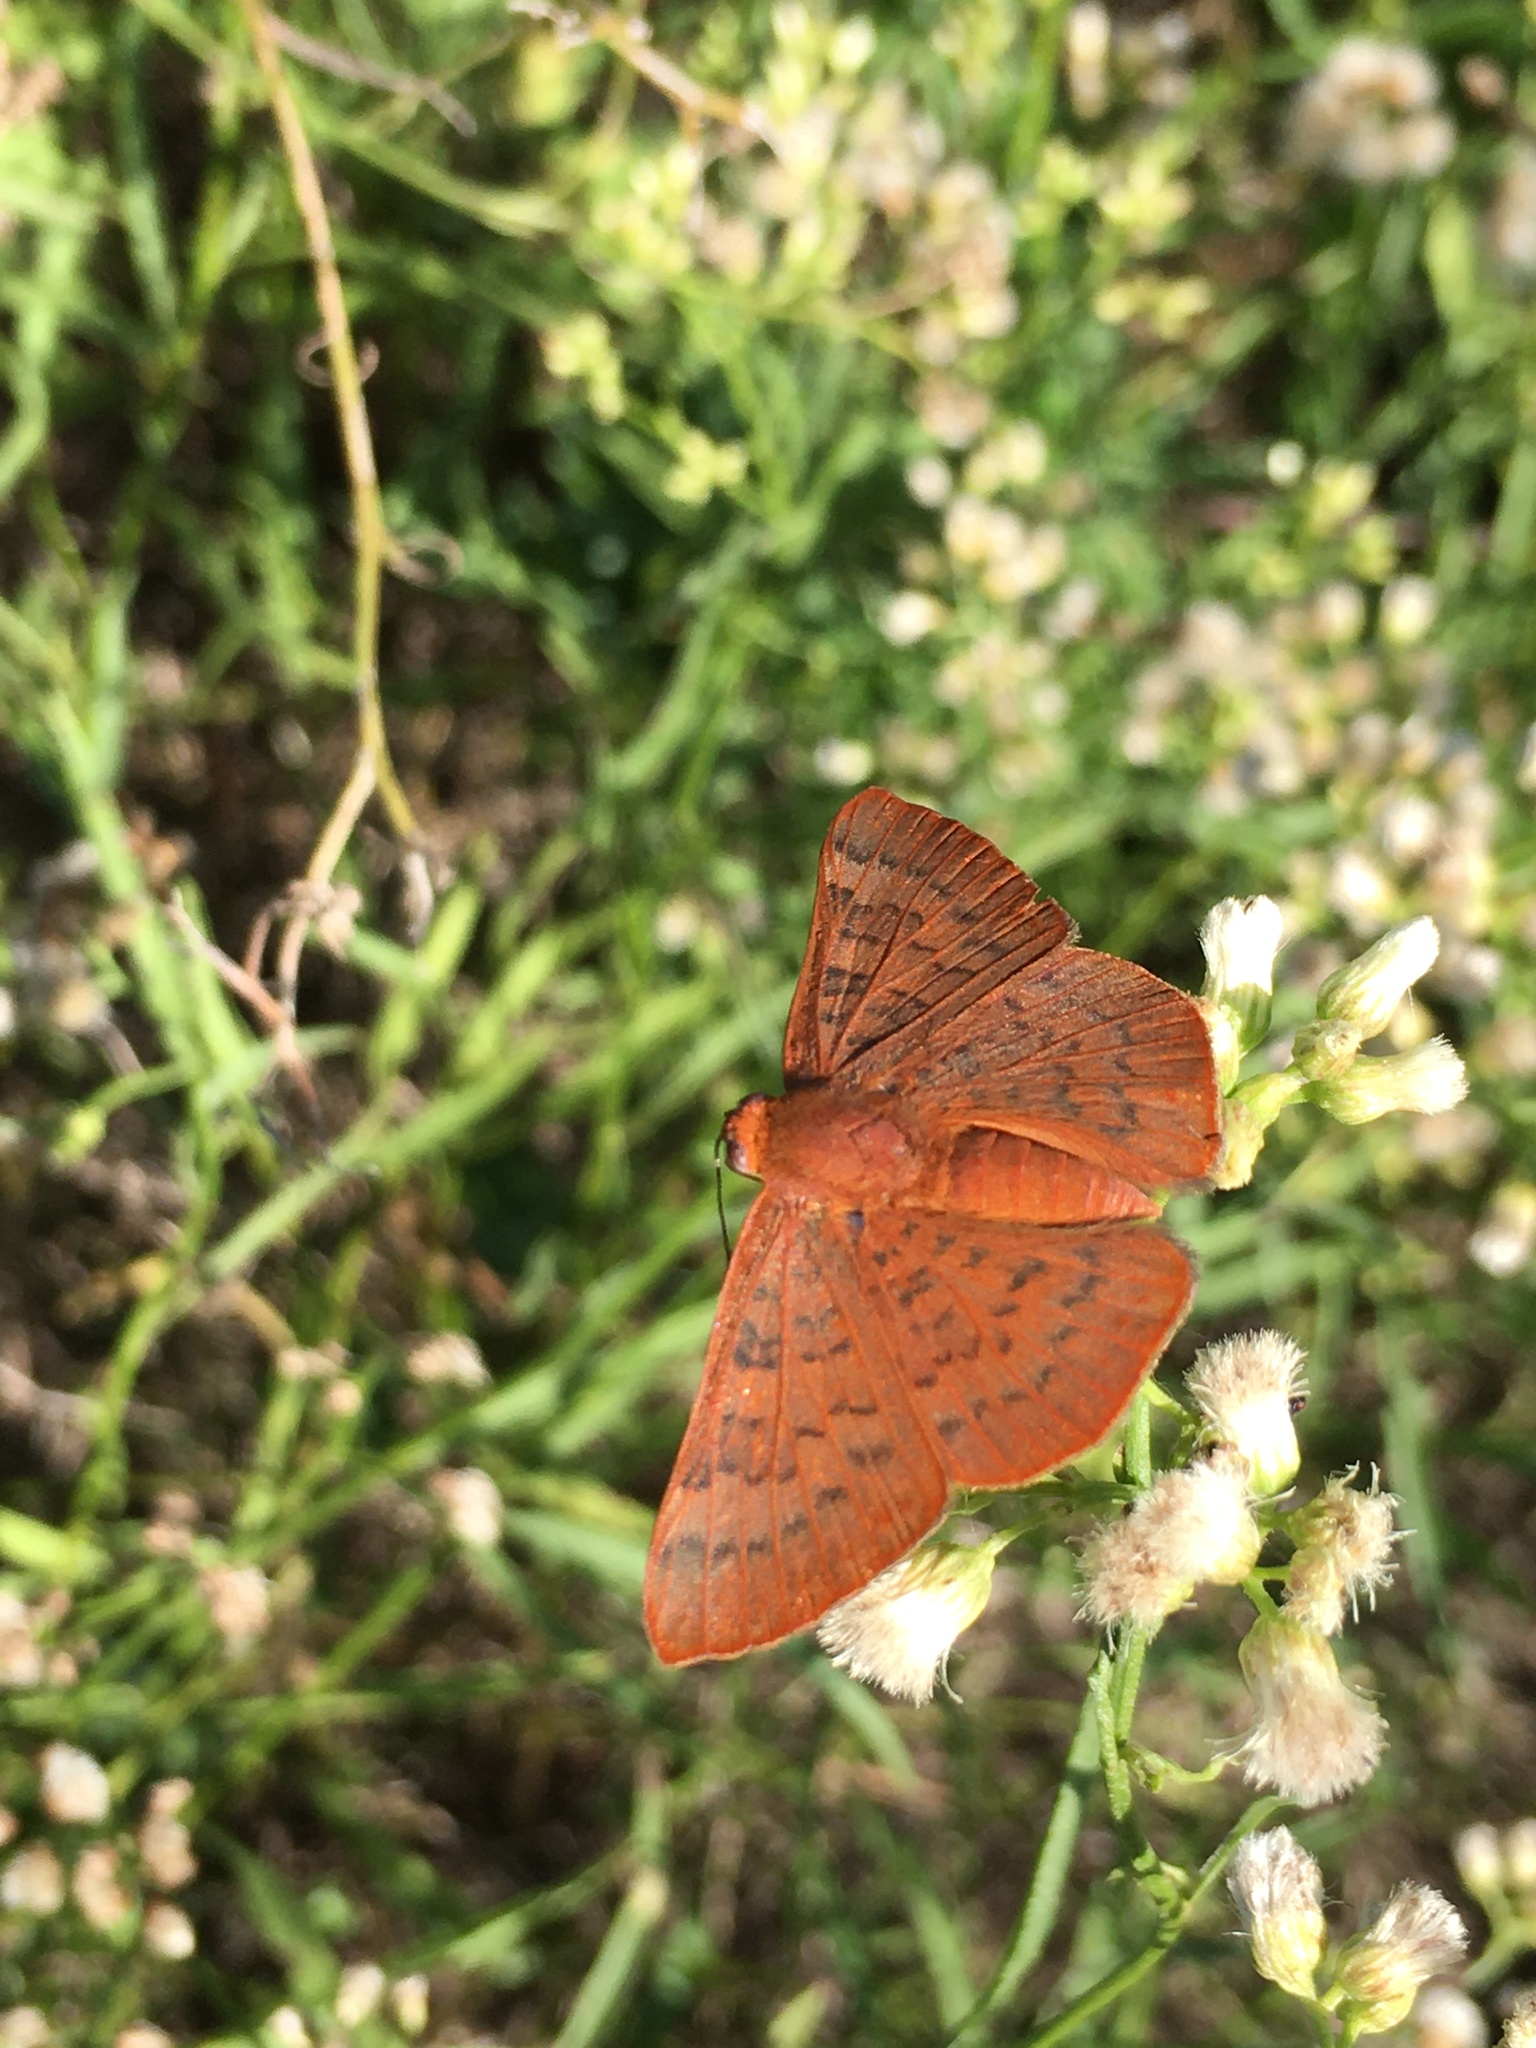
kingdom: Animalia
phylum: Arthropoda
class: Insecta
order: Lepidoptera
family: Lycaenidae
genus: Emesis
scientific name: Emesis russula
